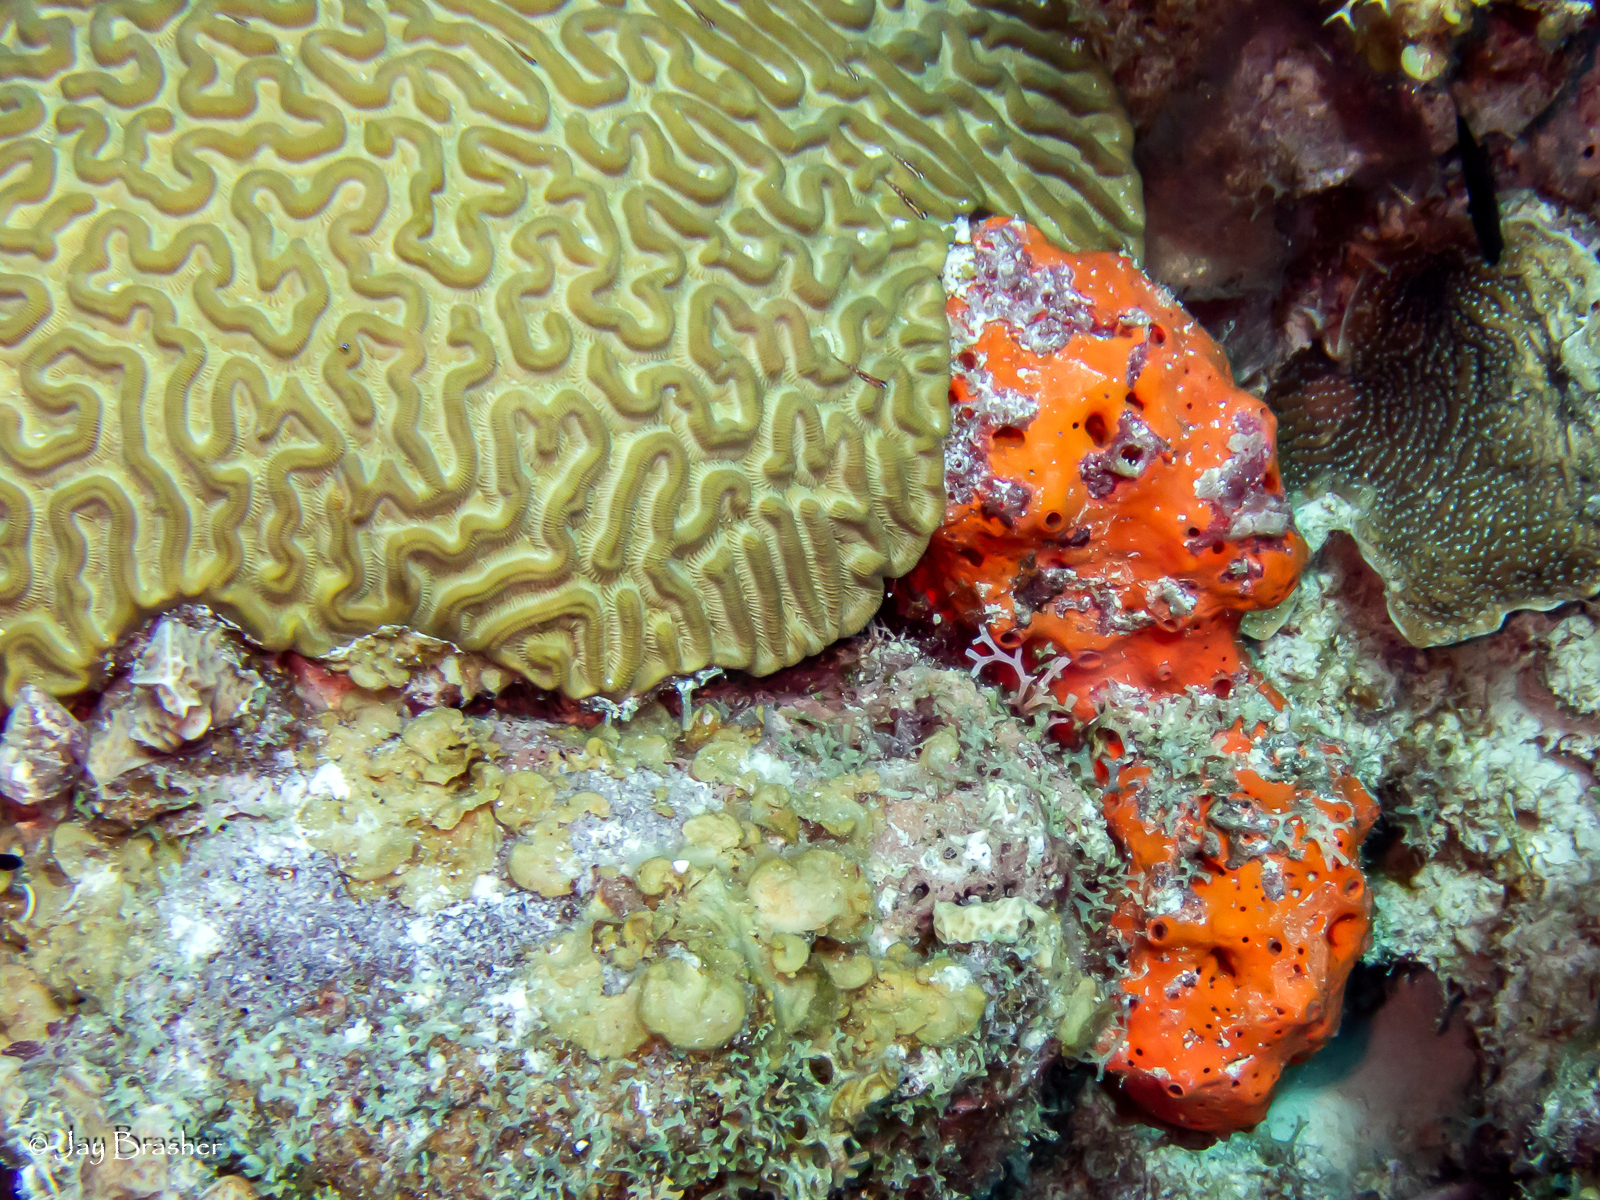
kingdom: Animalia
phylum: Porifera
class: Demospongiae
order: Agelasida
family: Agelasidae
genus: Agelas
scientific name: Agelas sventres
